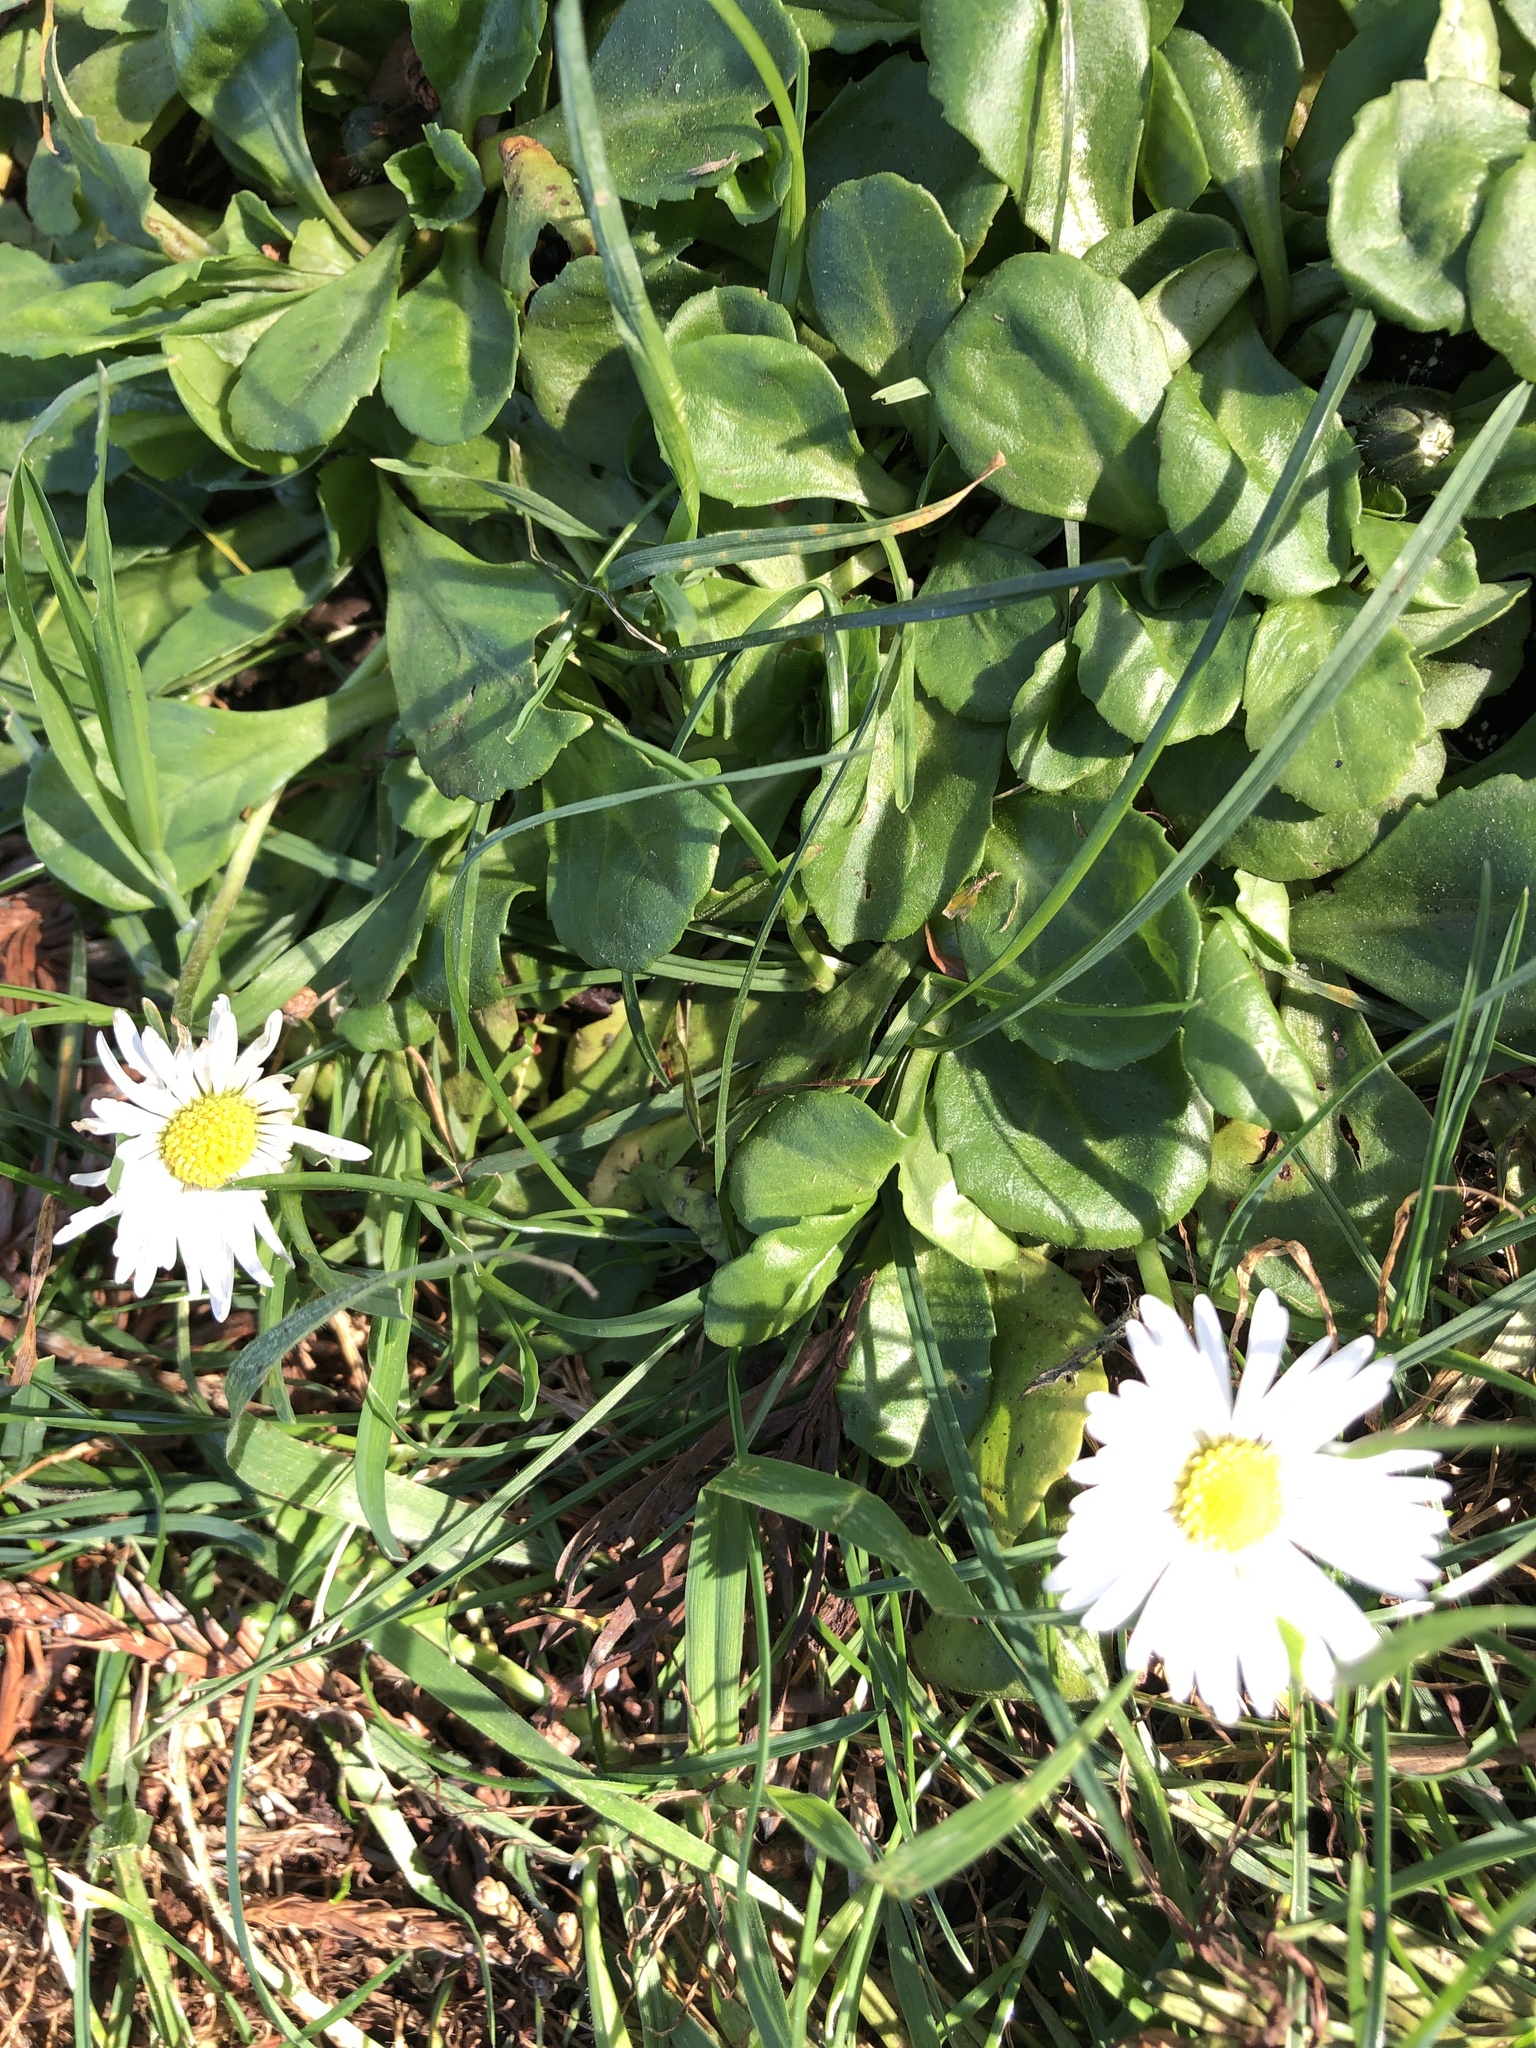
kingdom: Plantae
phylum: Tracheophyta
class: Magnoliopsida
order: Asterales
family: Asteraceae
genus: Bellis
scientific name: Bellis perennis
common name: Lawndaisy
